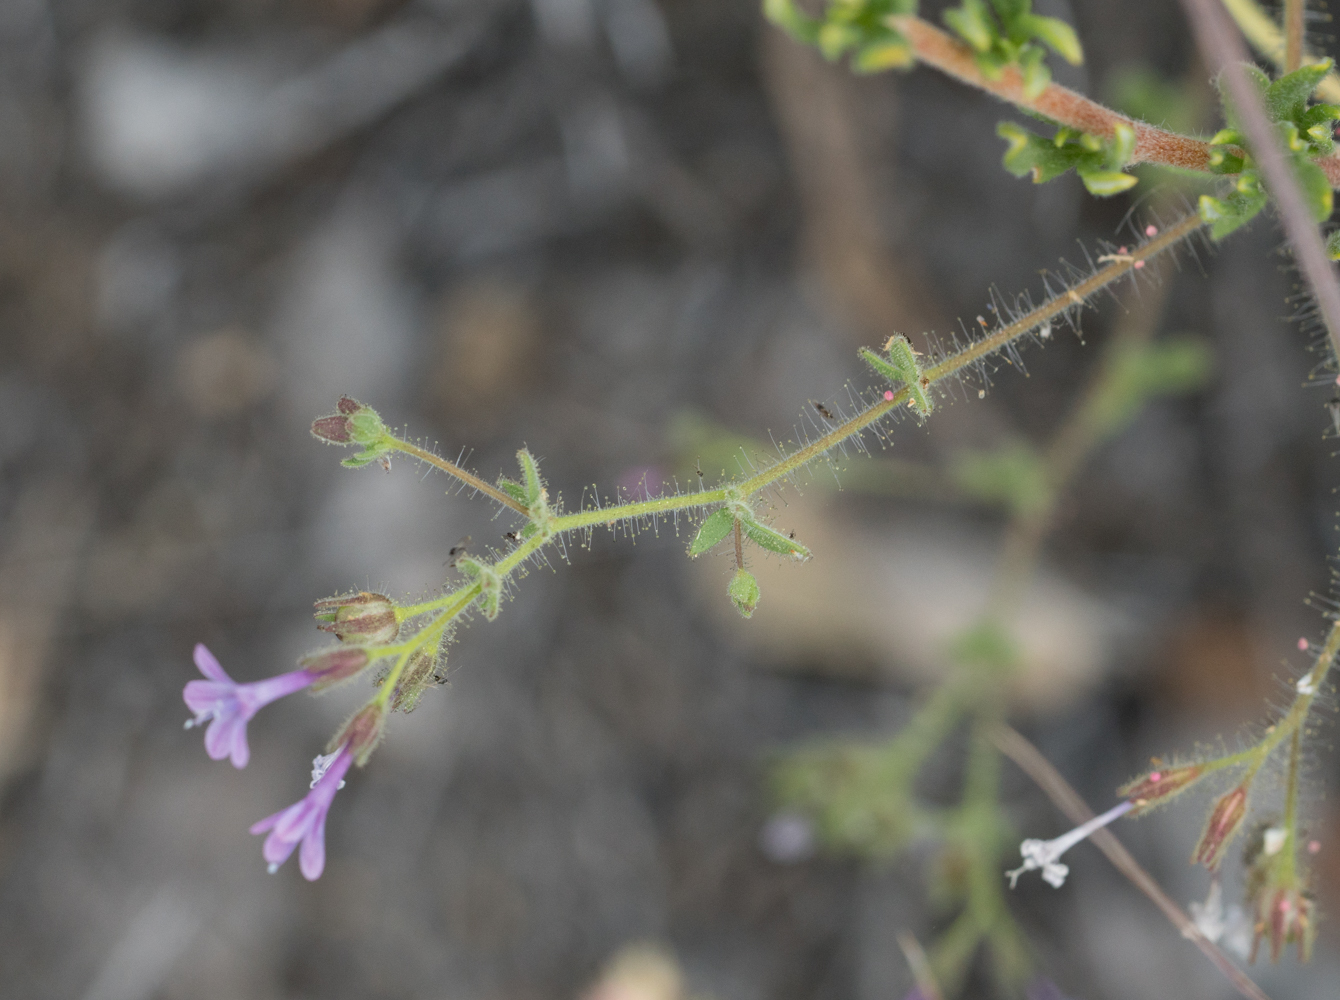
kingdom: Plantae
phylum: Tracheophyta
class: Magnoliopsida
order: Ericales
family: Polemoniaceae
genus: Allophyllum
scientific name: Allophyllum glutinosum
